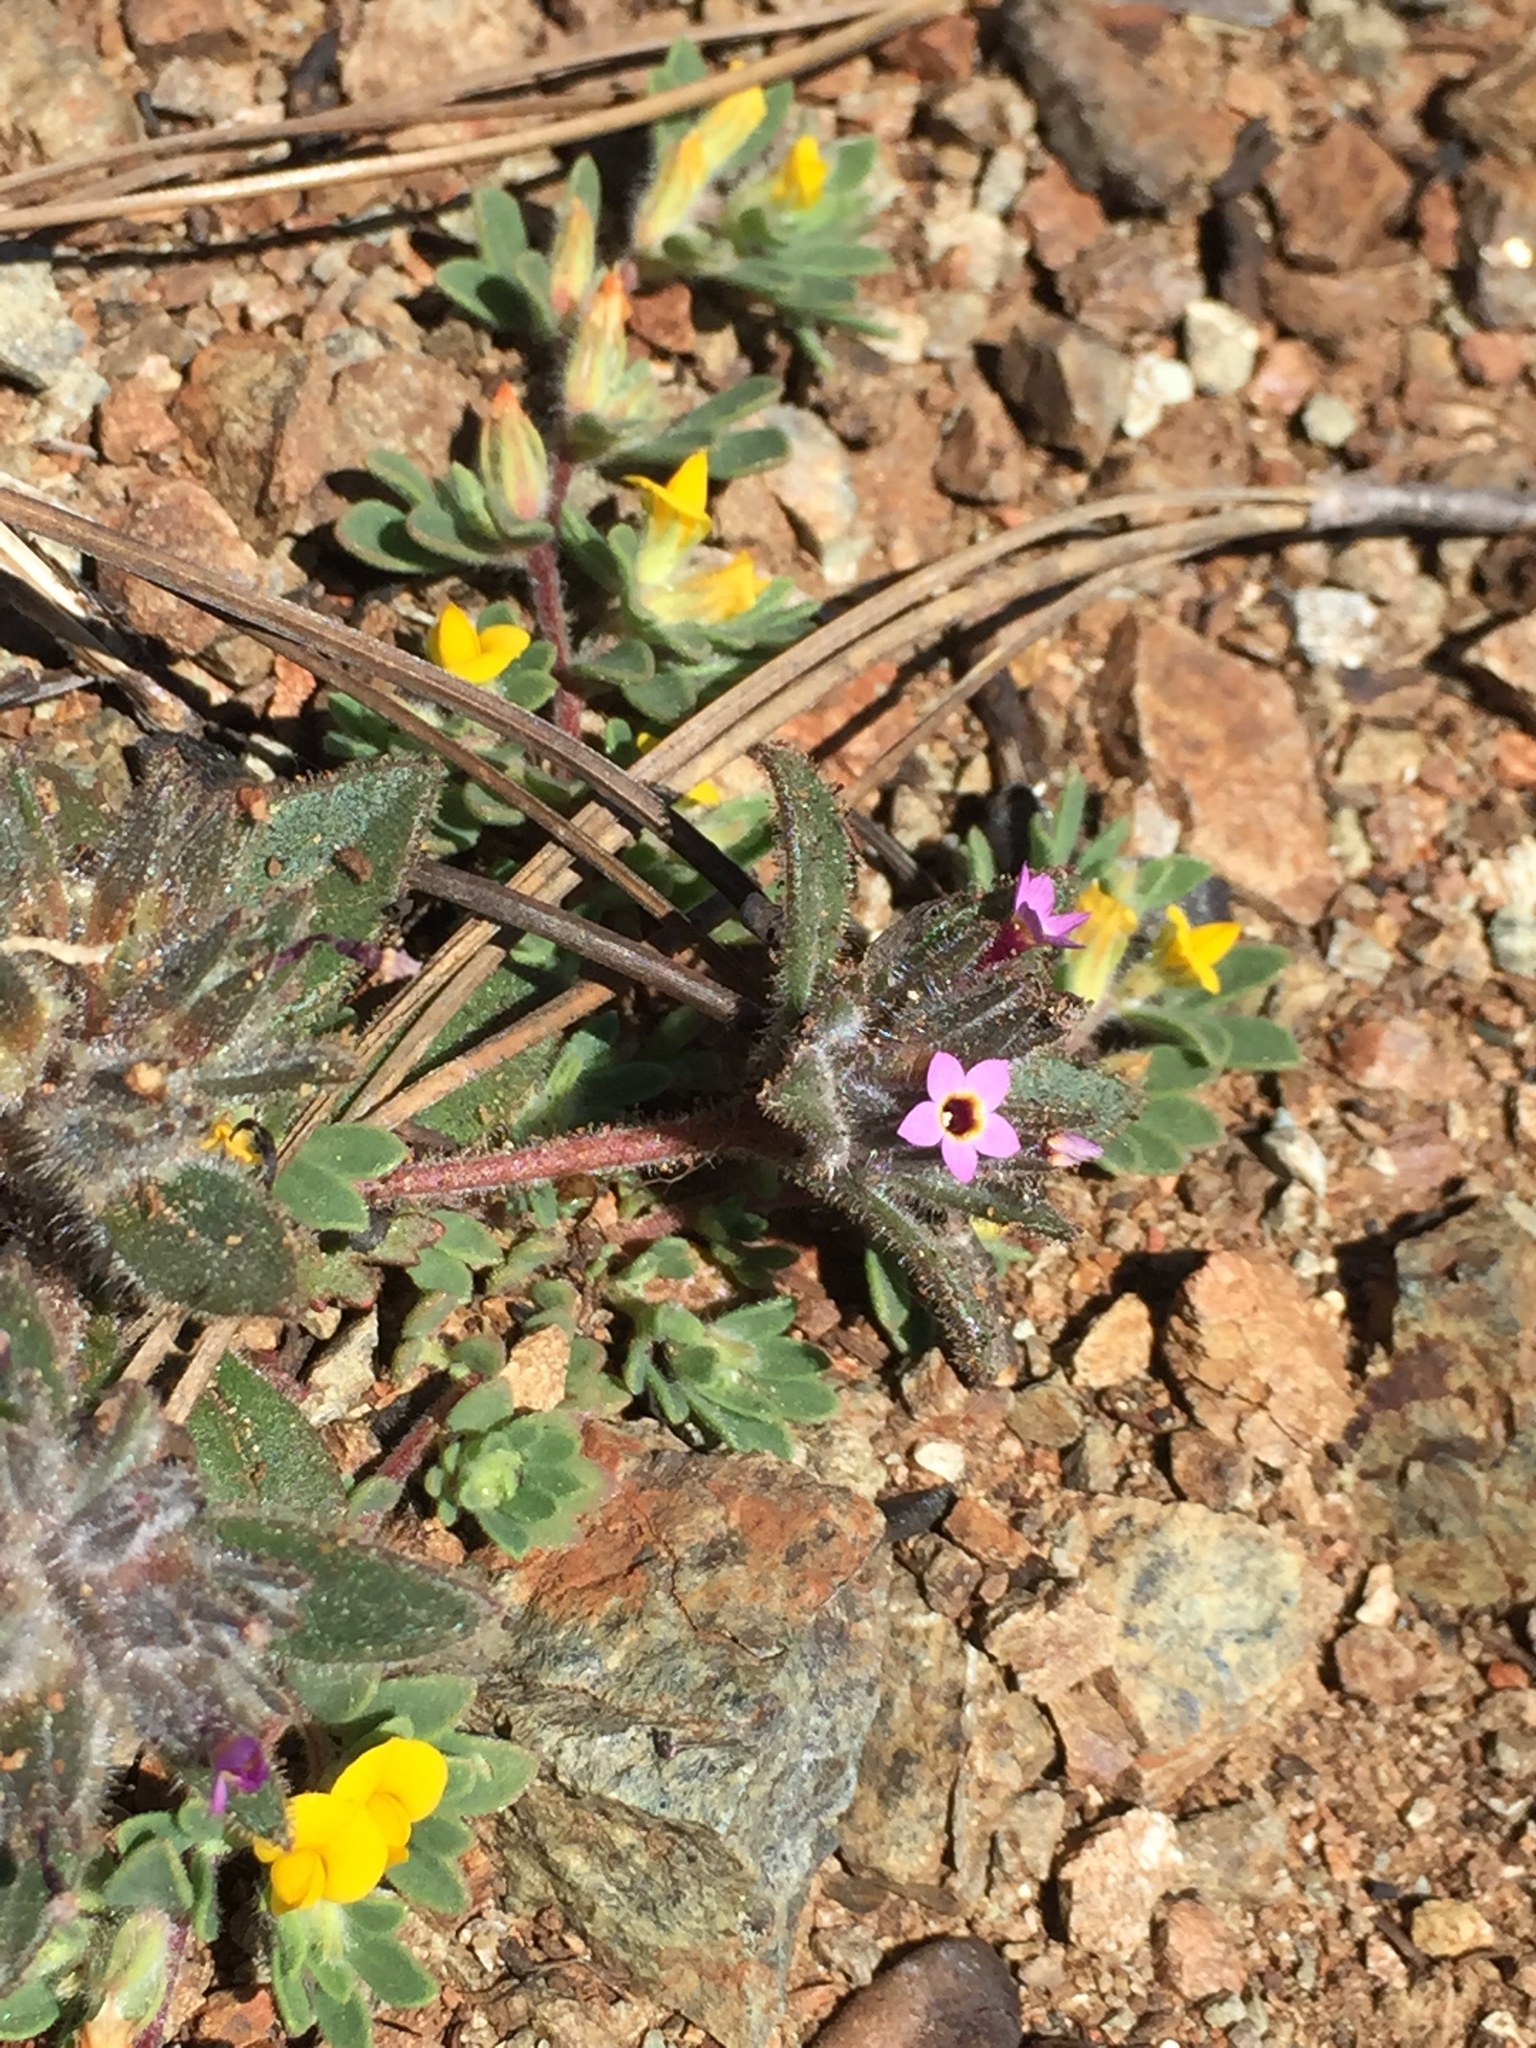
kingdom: Plantae
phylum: Tracheophyta
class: Magnoliopsida
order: Ericales
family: Polemoniaceae
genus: Collomia
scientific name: Collomia diversifolia
